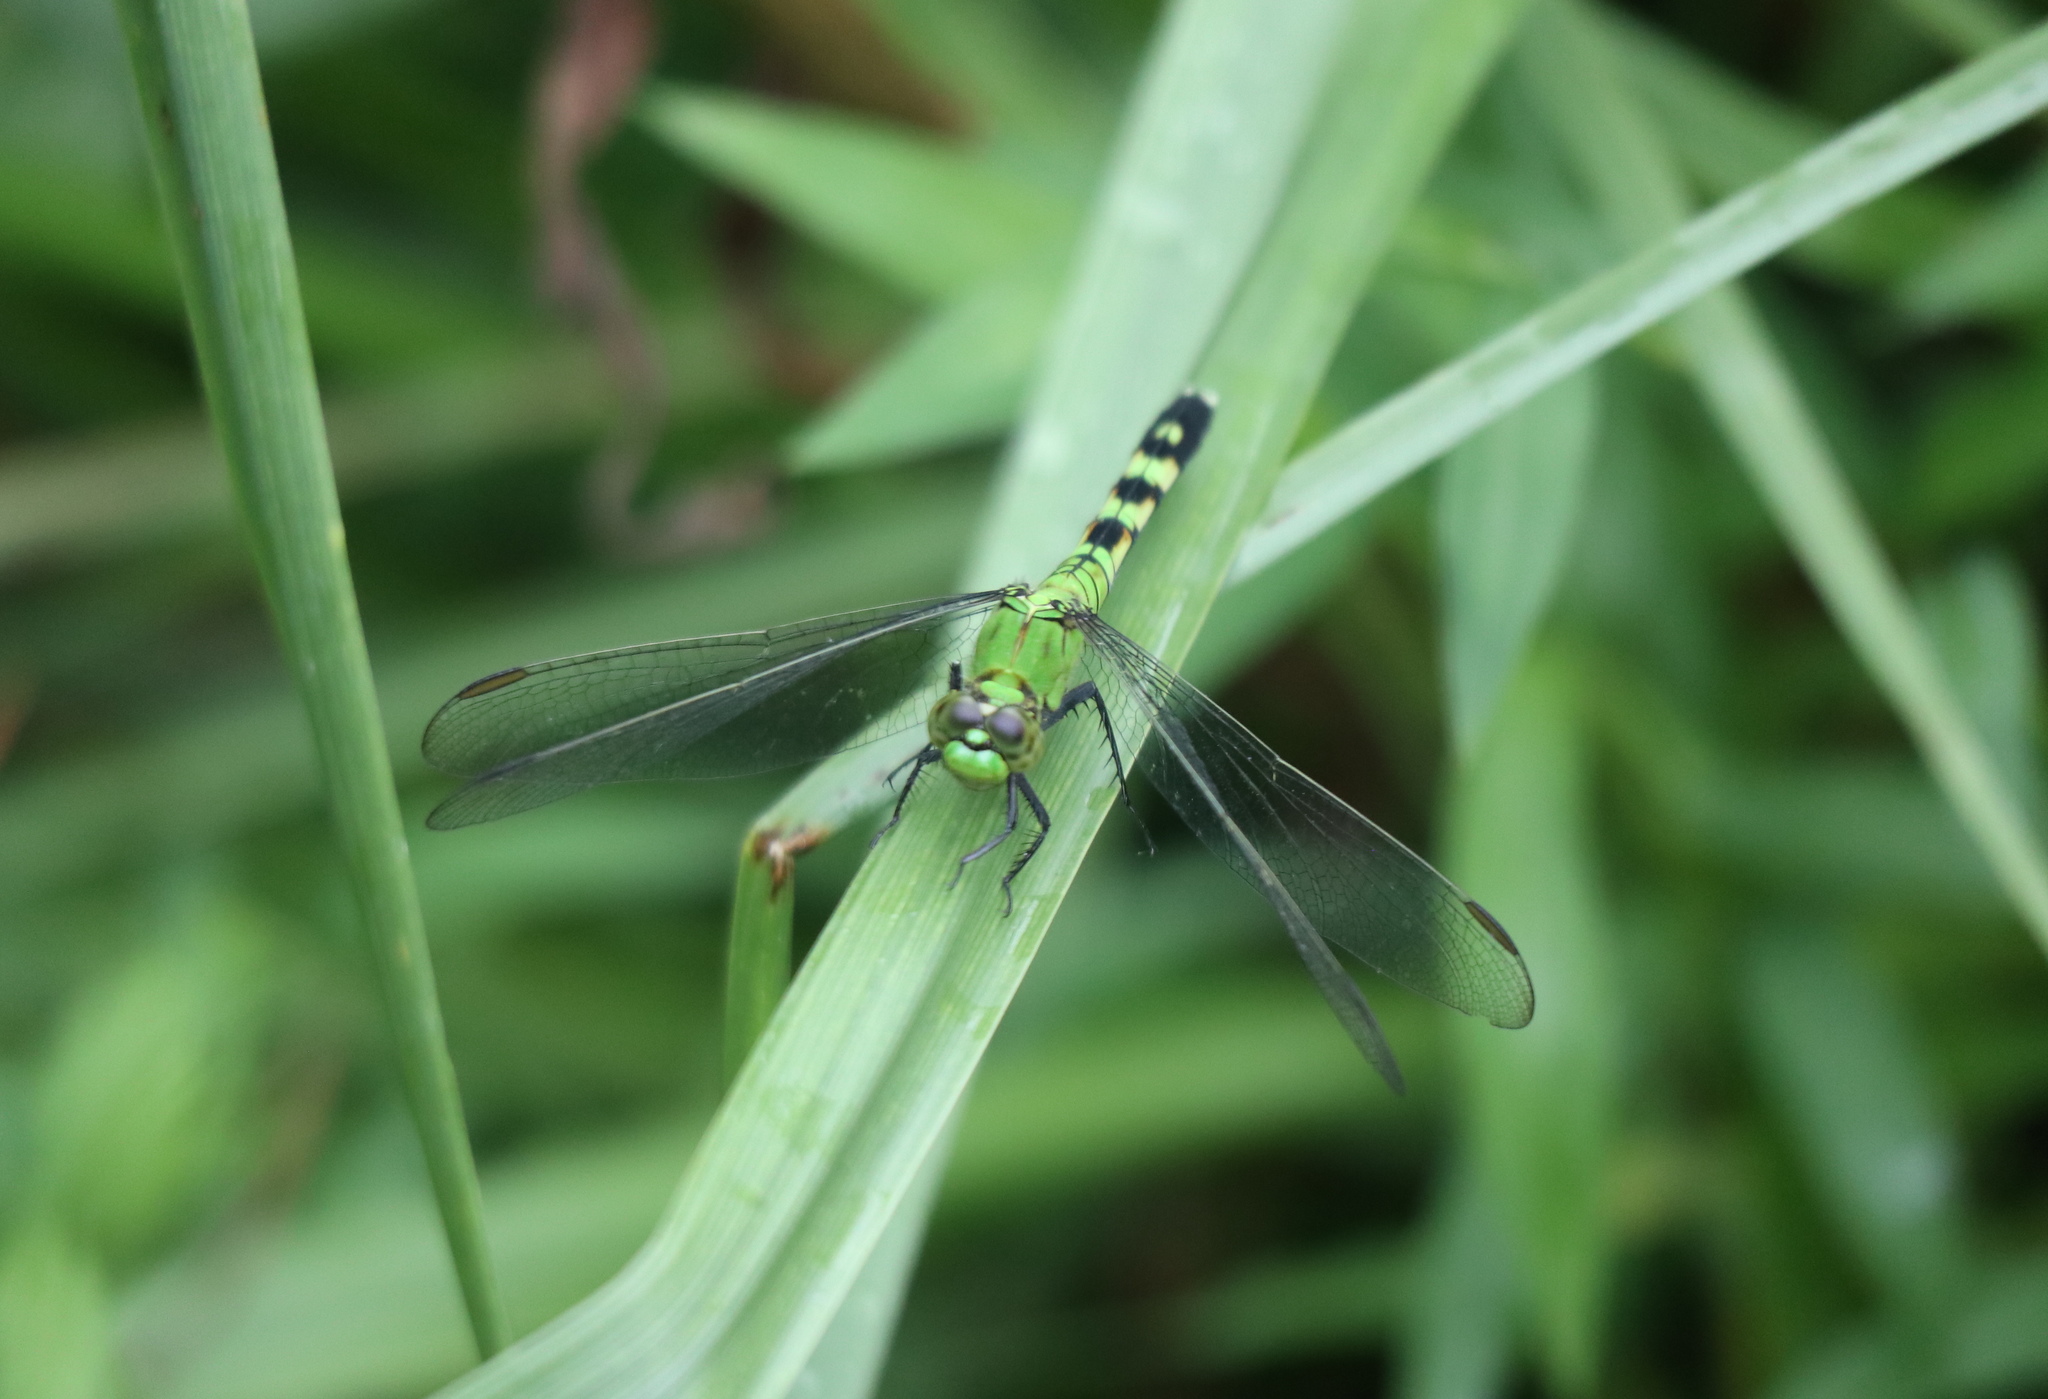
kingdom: Animalia
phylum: Arthropoda
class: Insecta
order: Odonata
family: Libellulidae
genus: Erythemis
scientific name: Erythemis simplicicollis
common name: Eastern pondhawk
